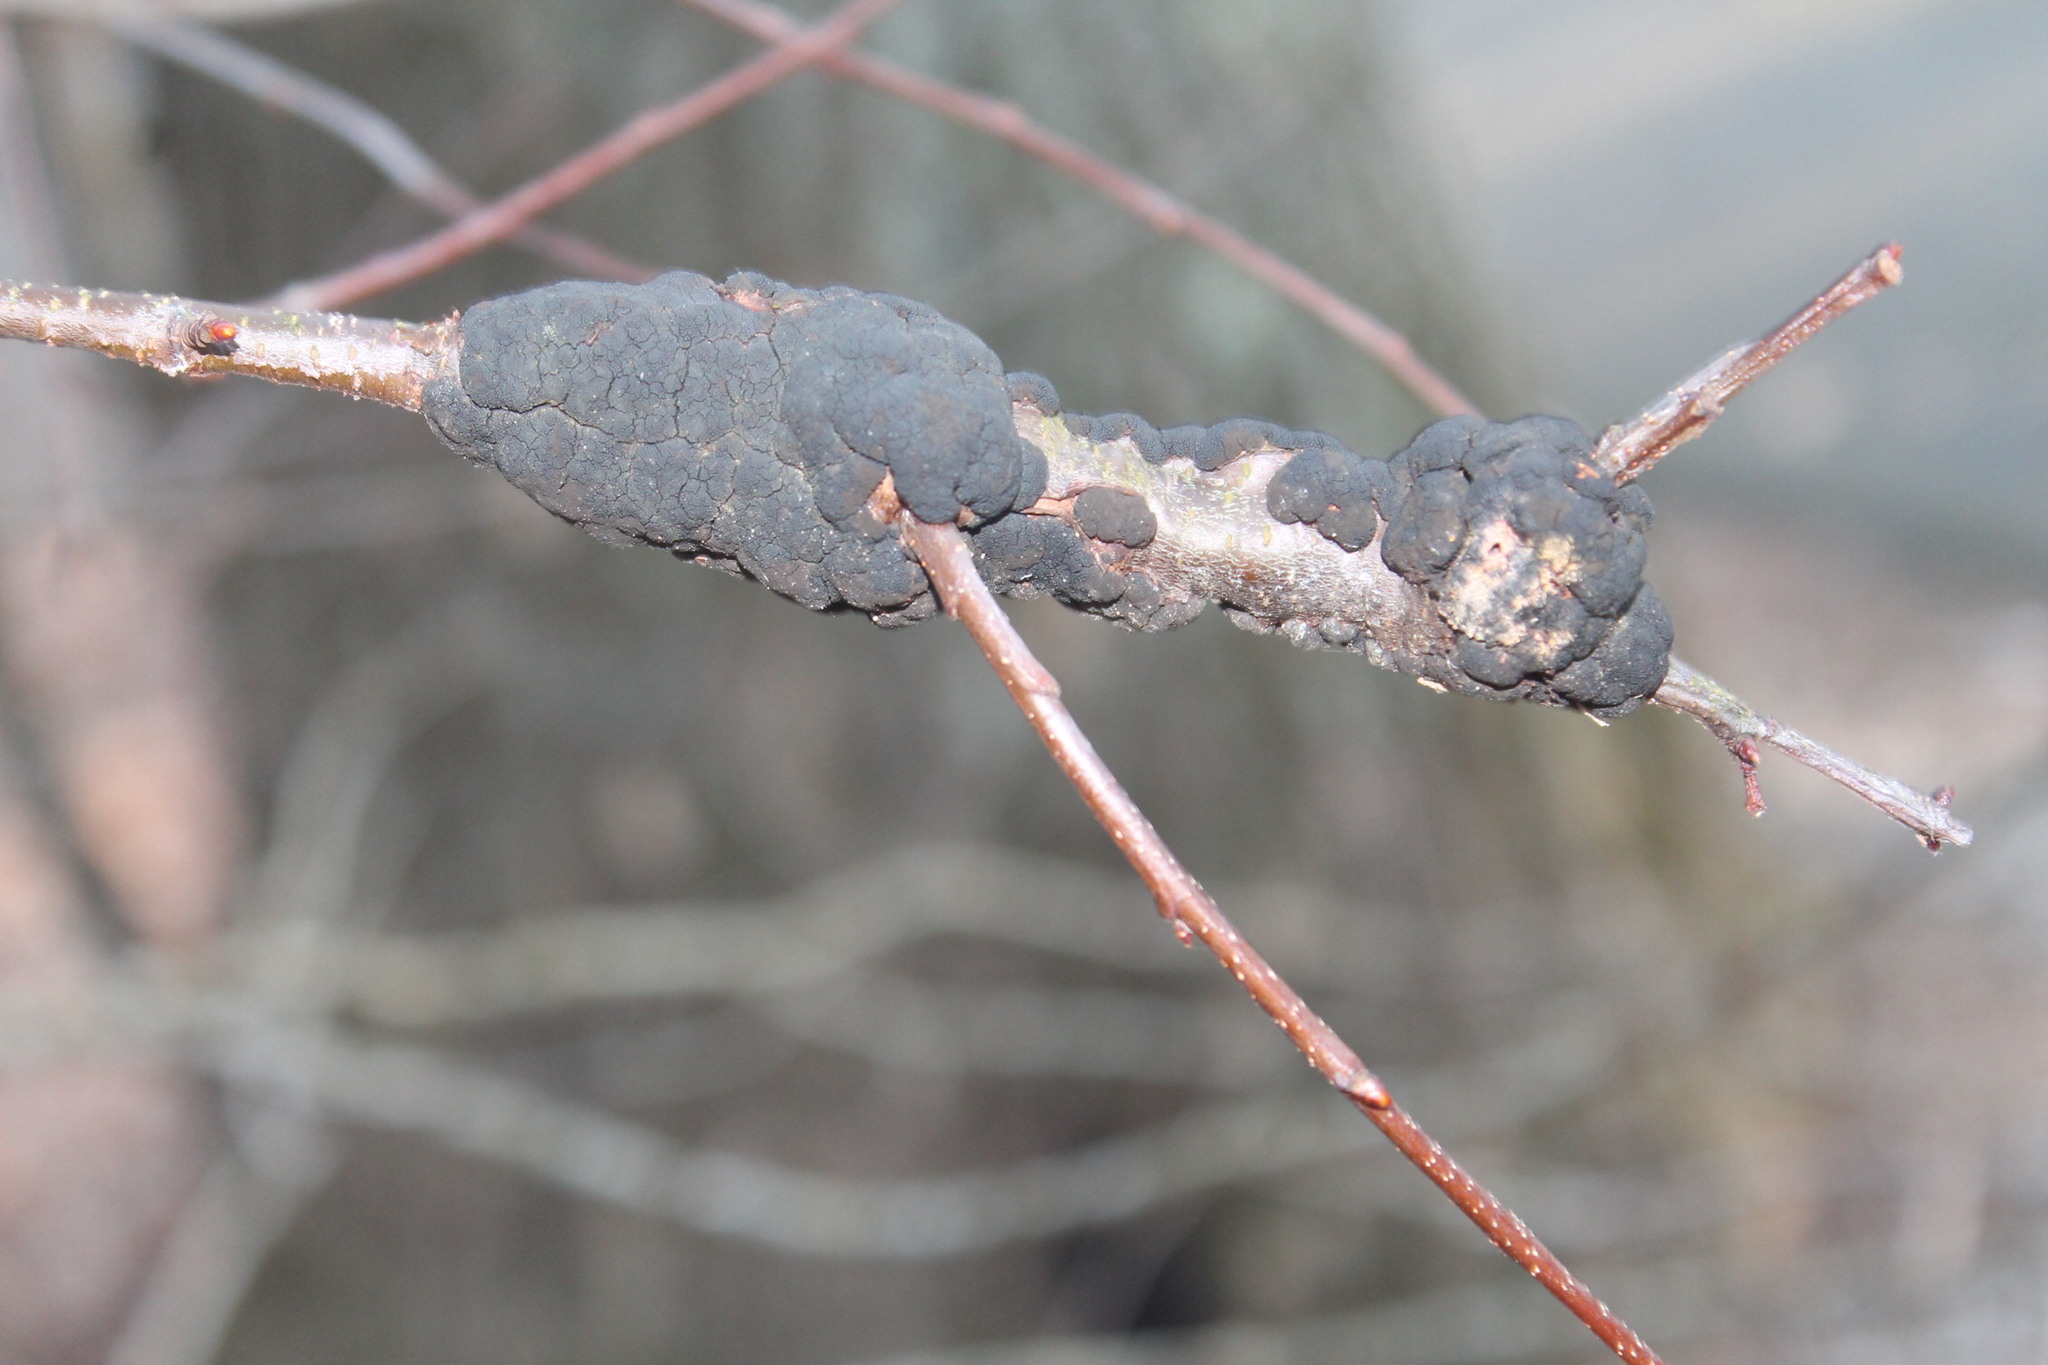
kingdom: Fungi
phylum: Ascomycota
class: Dothideomycetes
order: Venturiales
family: Venturiaceae
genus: Apiosporina
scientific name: Apiosporina morbosa
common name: Black knot
